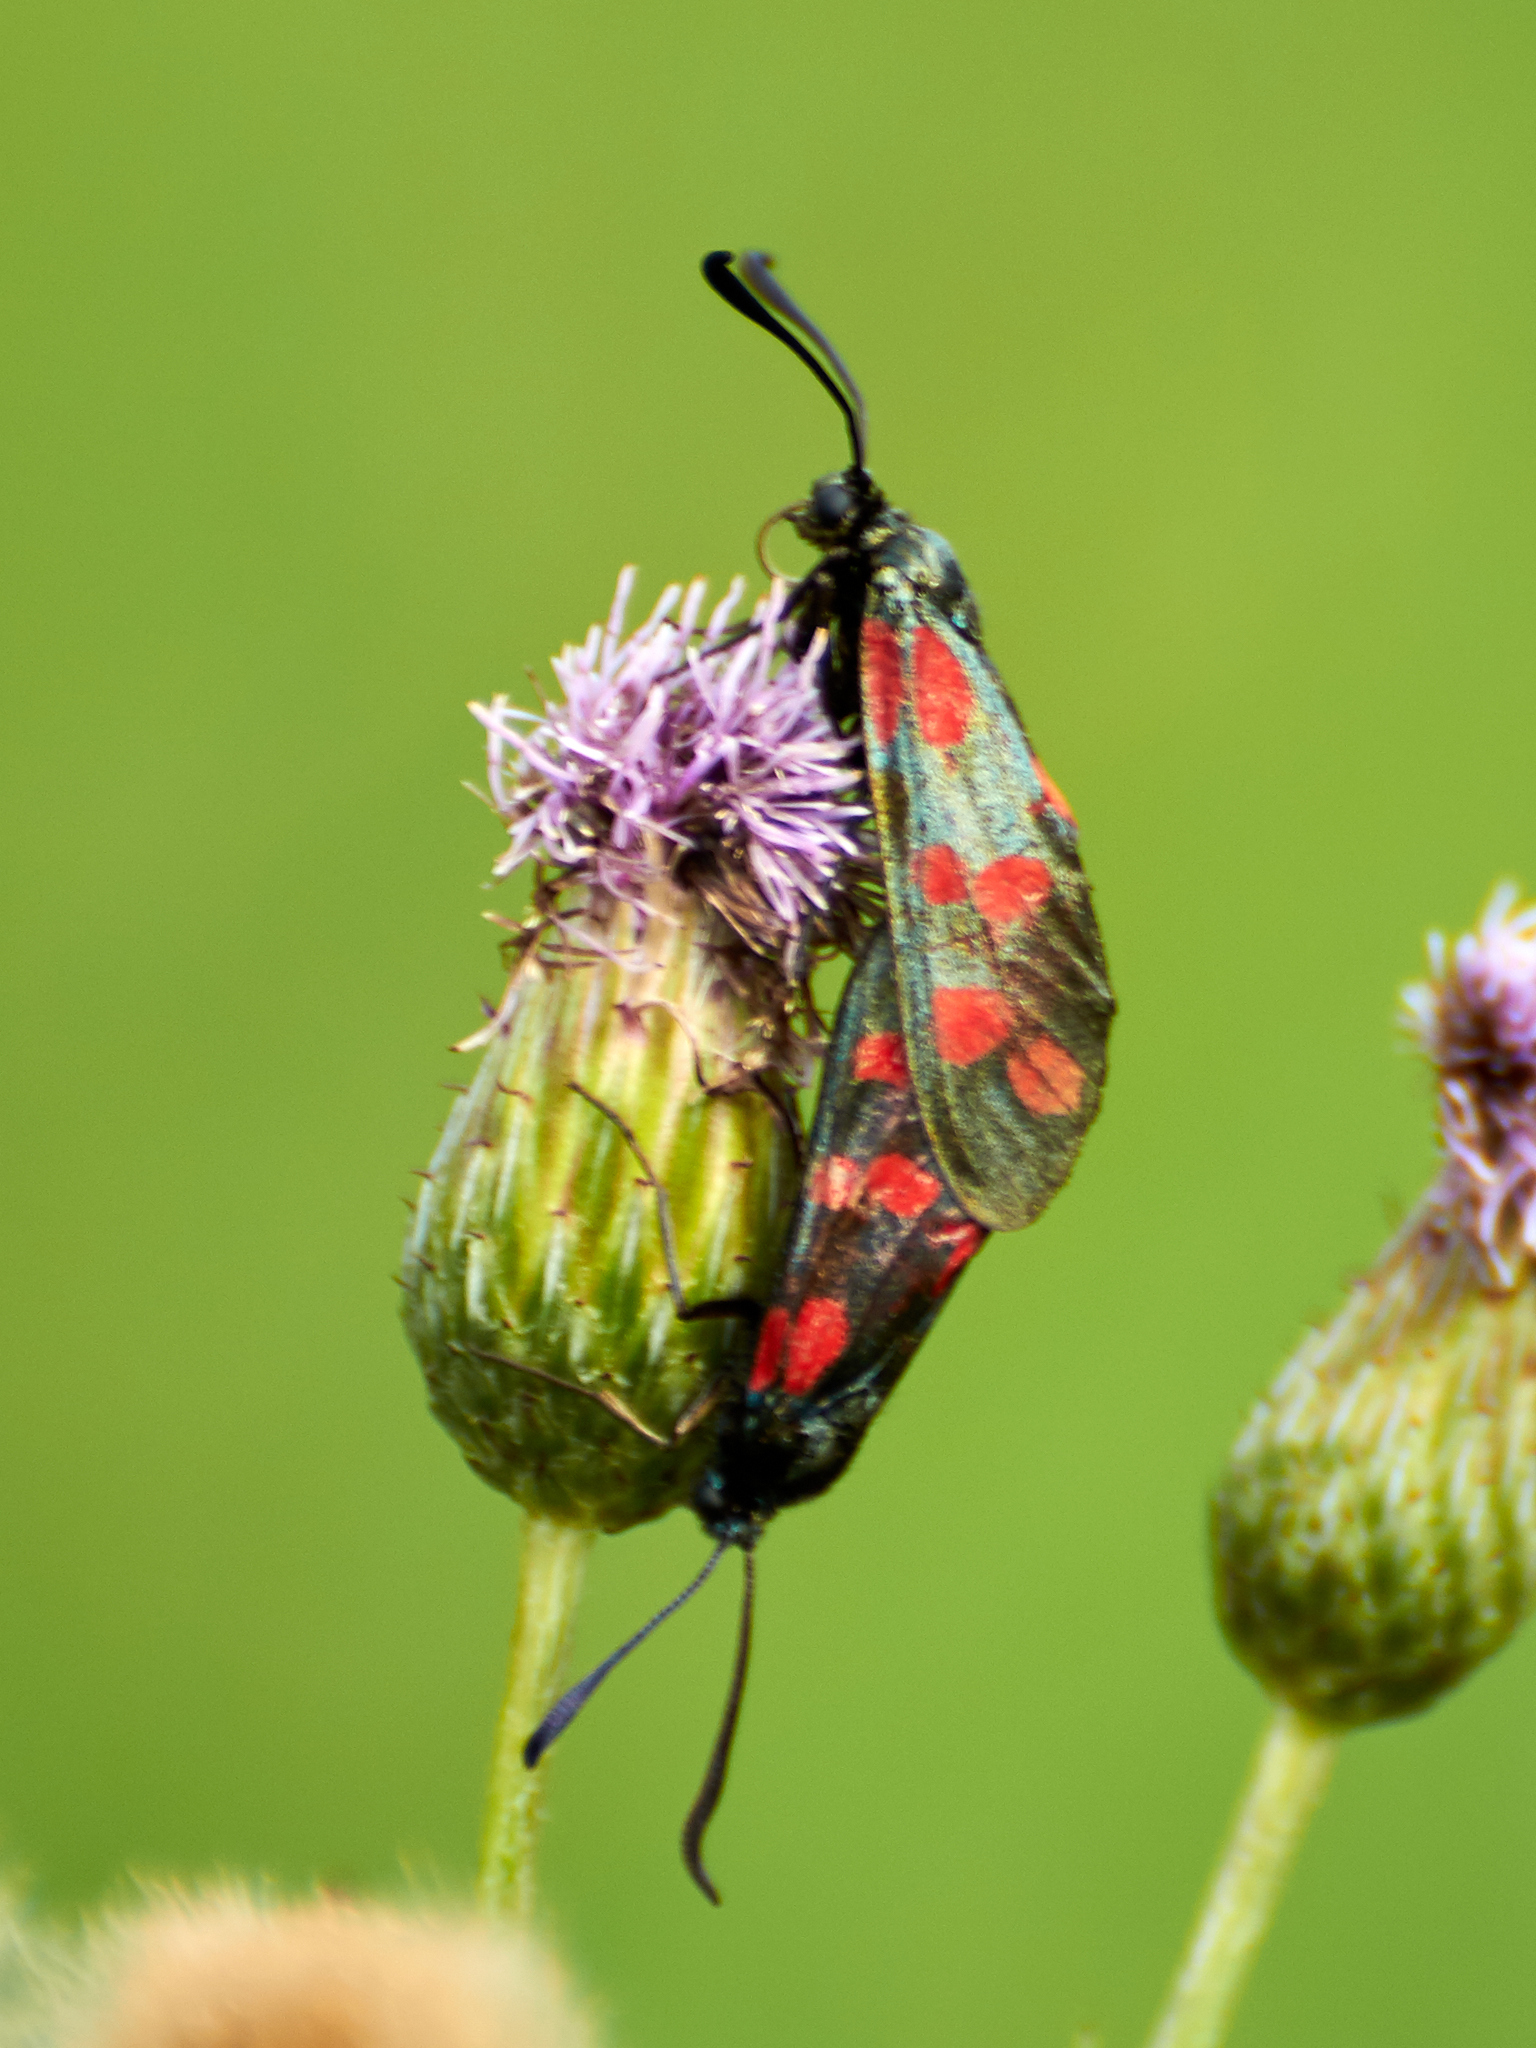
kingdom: Animalia
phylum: Arthropoda
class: Insecta
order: Lepidoptera
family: Zygaenidae
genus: Zygaena
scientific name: Zygaena filipendulae
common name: Six-spot burnet
